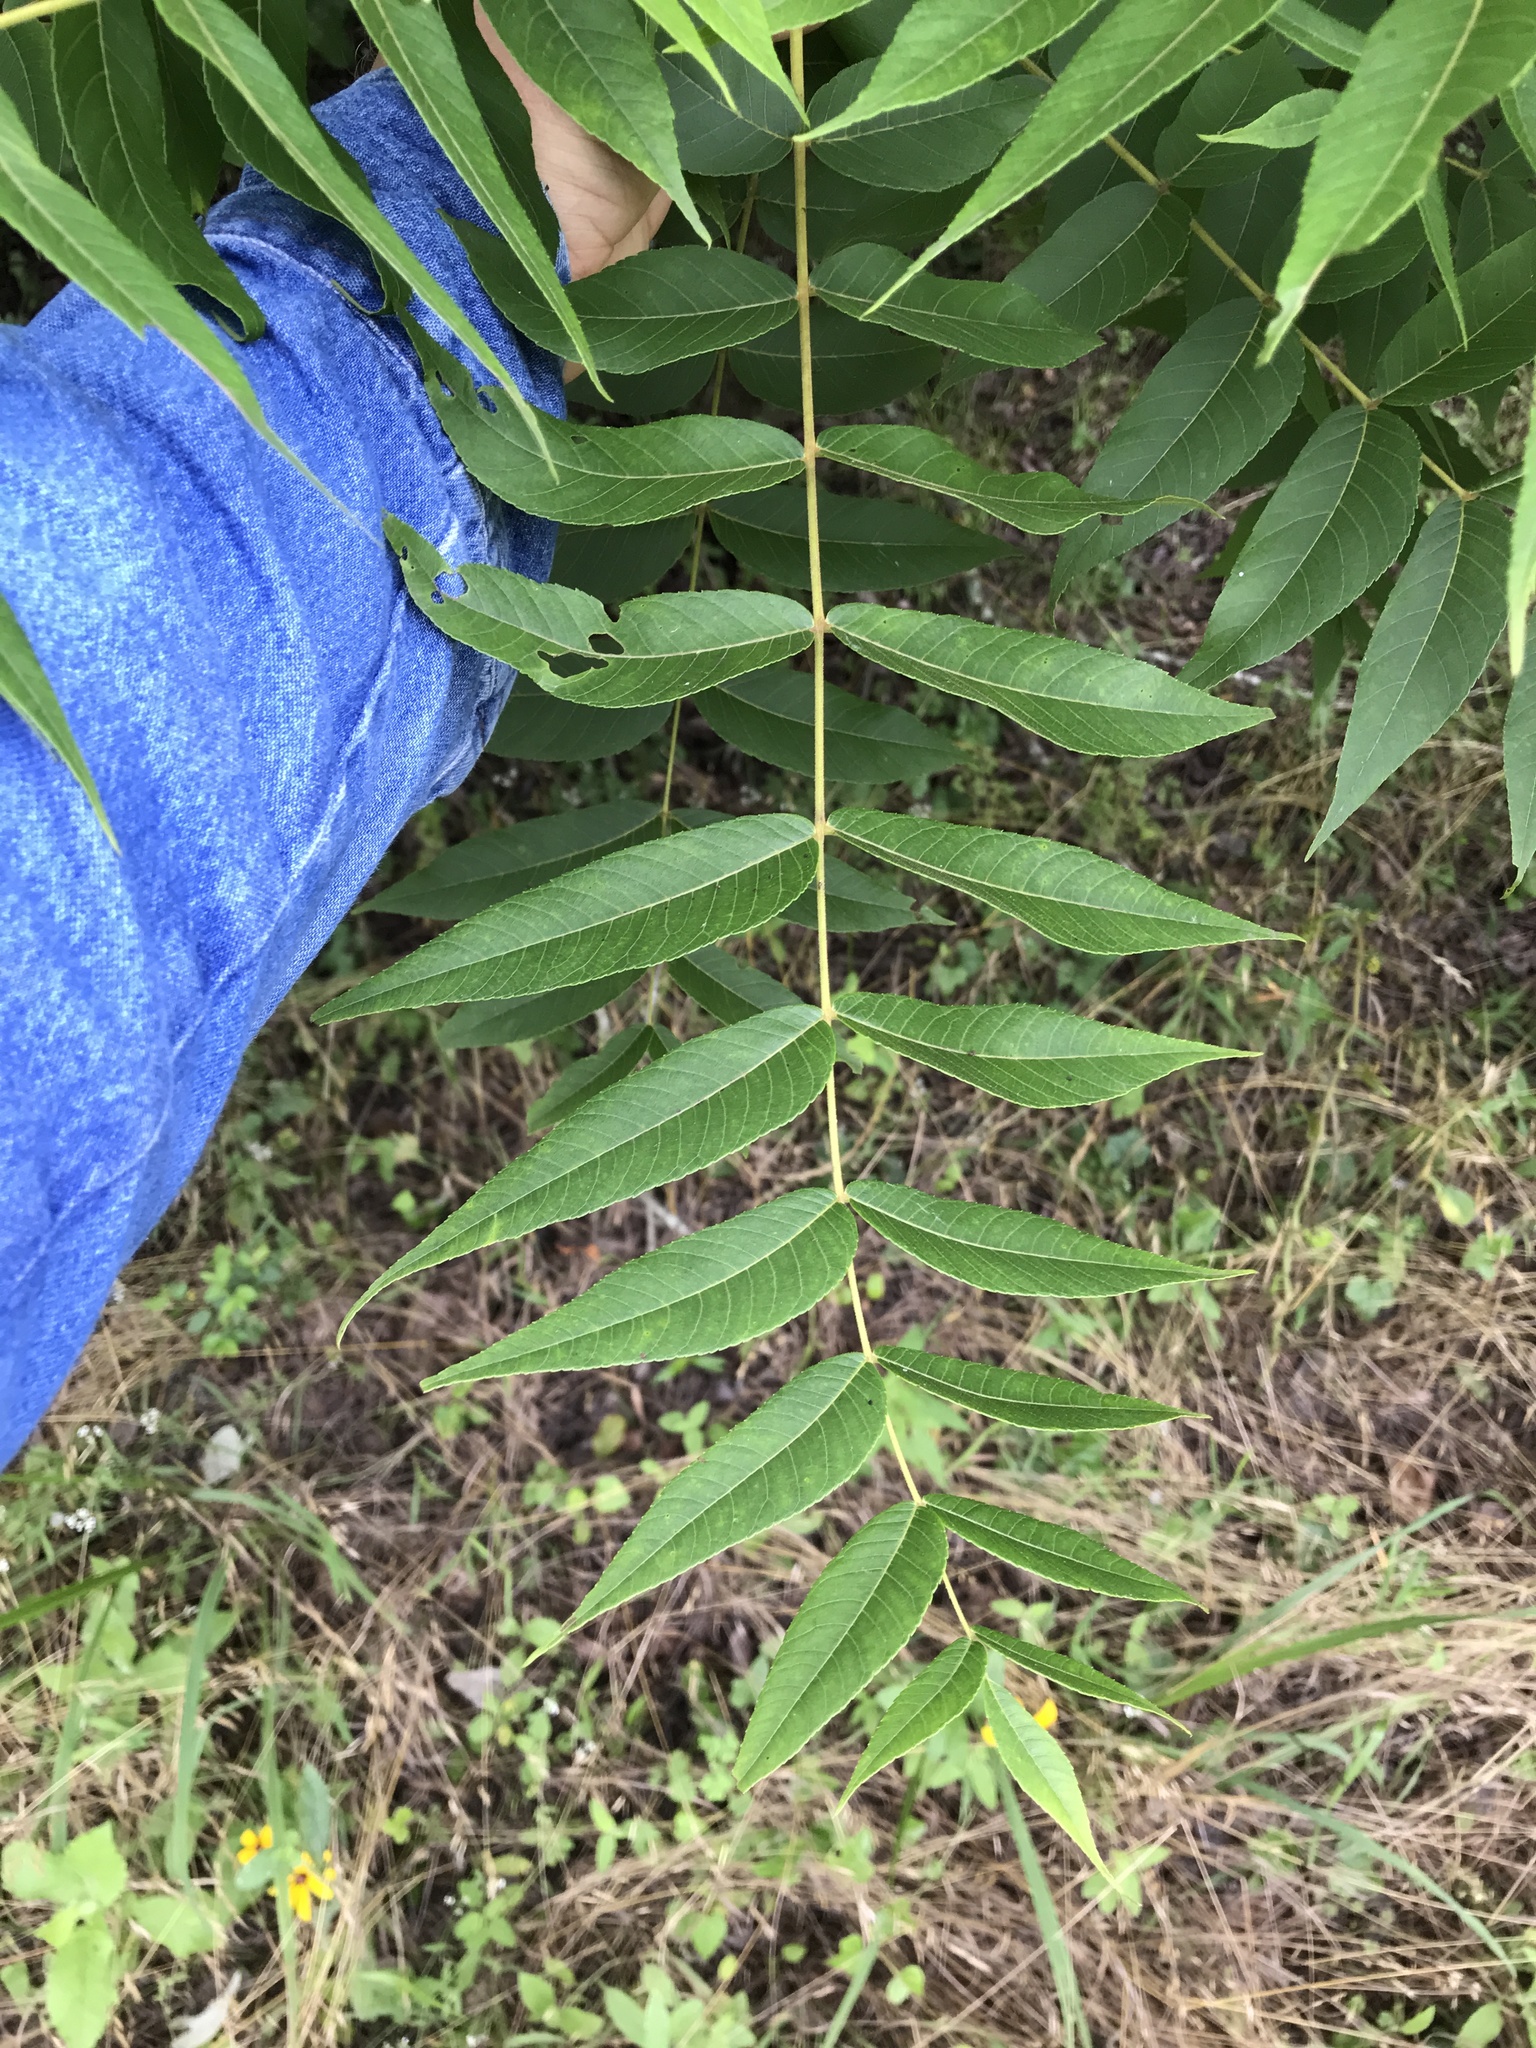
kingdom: Plantae
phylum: Tracheophyta
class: Magnoliopsida
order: Fagales
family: Juglandaceae
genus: Juglans
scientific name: Juglans nigra
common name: Black walnut
